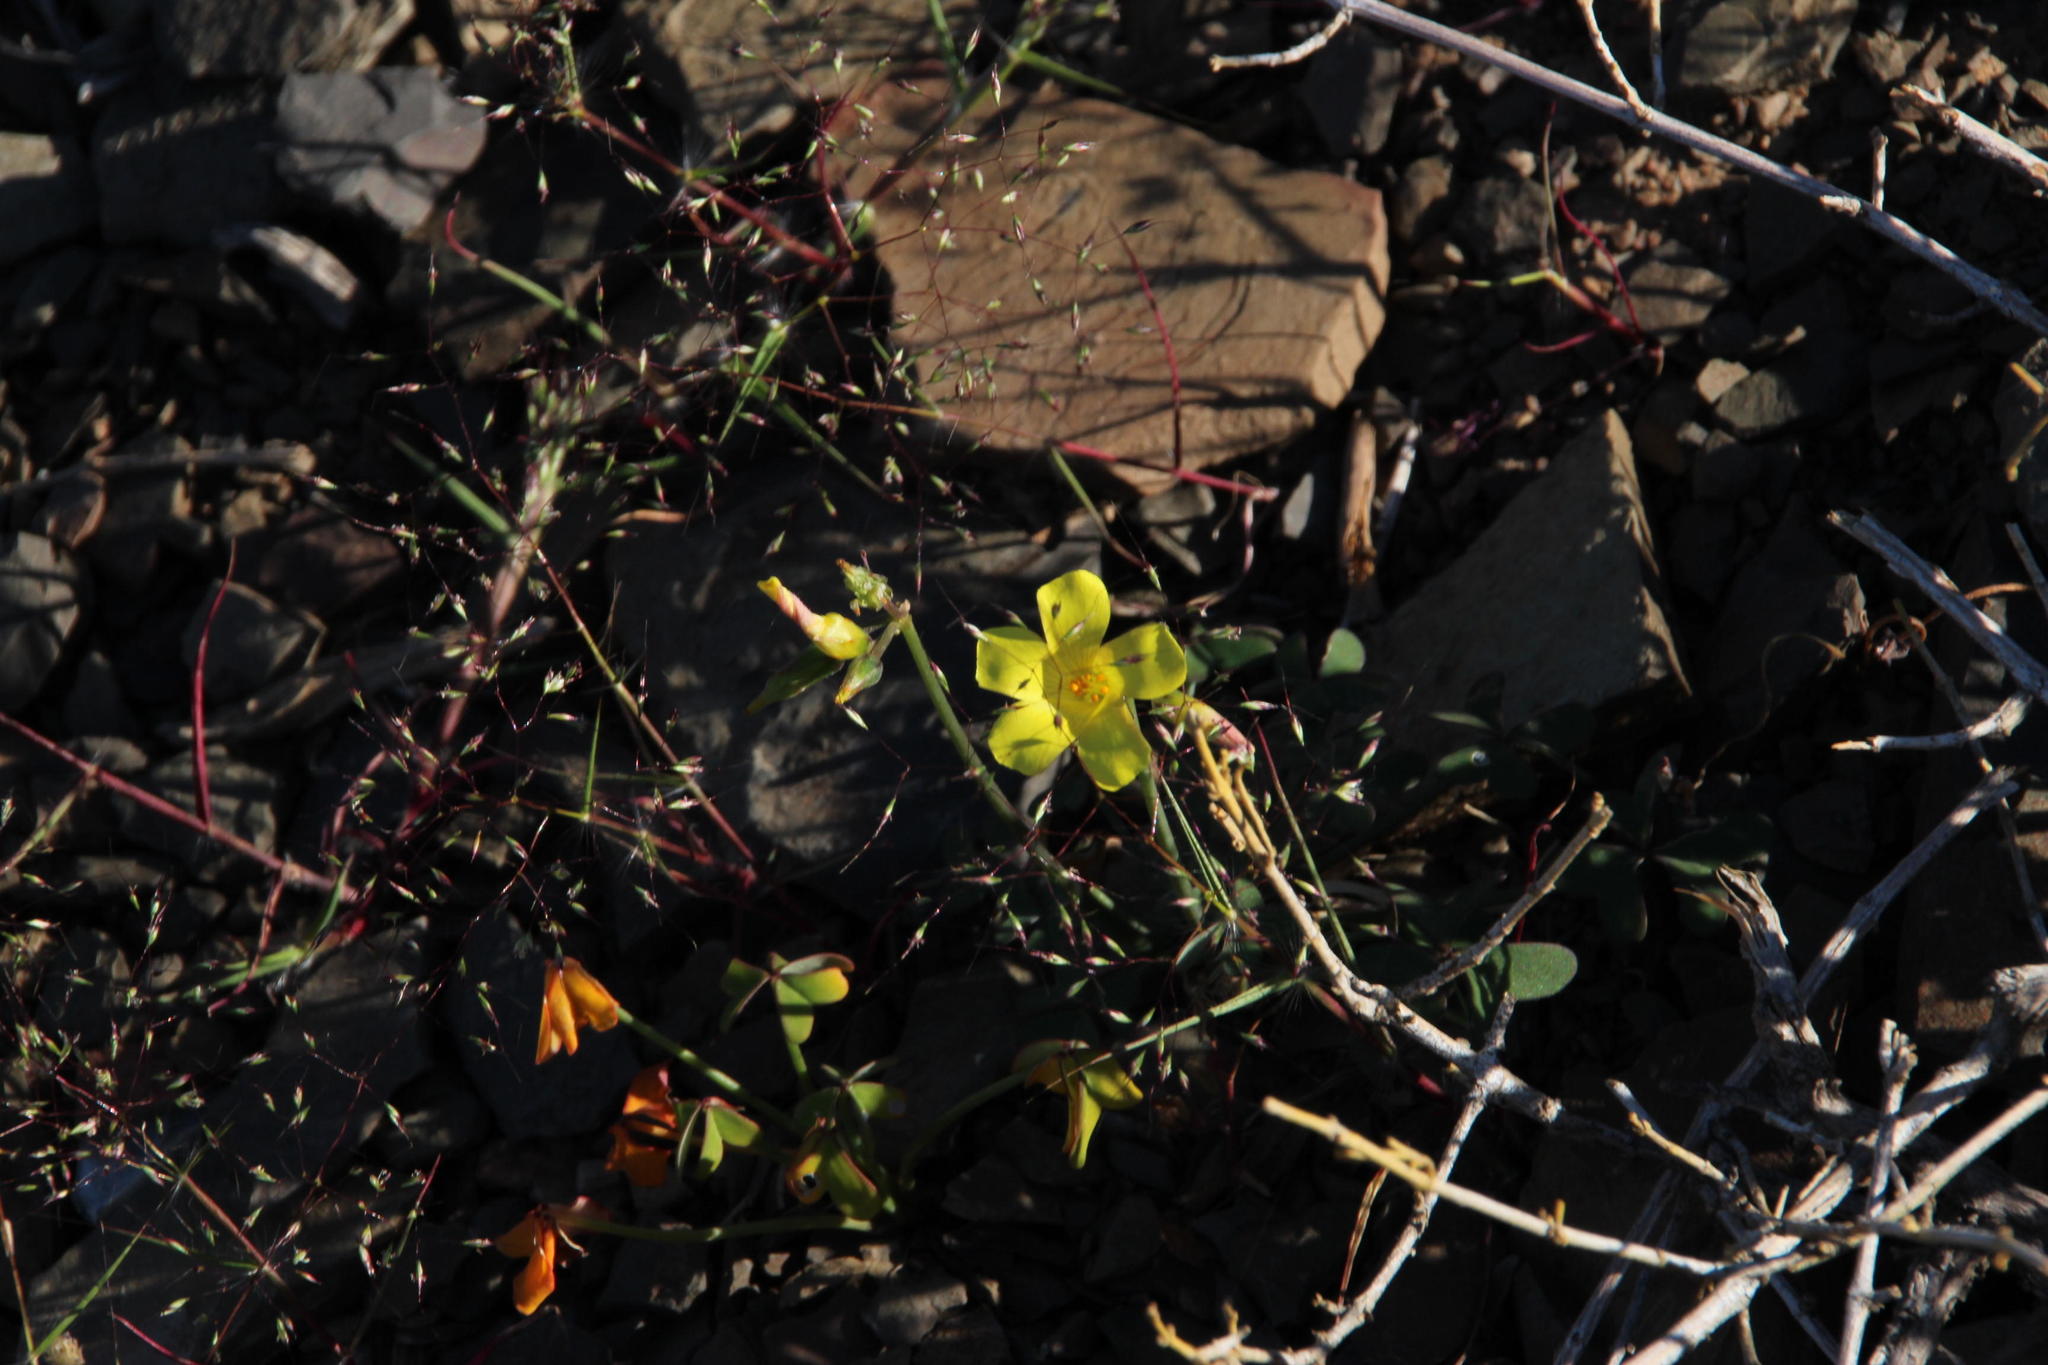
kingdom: Plantae
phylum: Tracheophyta
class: Magnoliopsida
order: Oxalidales
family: Oxalidaceae
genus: Oxalis
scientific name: Oxalis pes-caprae
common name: Bermuda-buttercup
